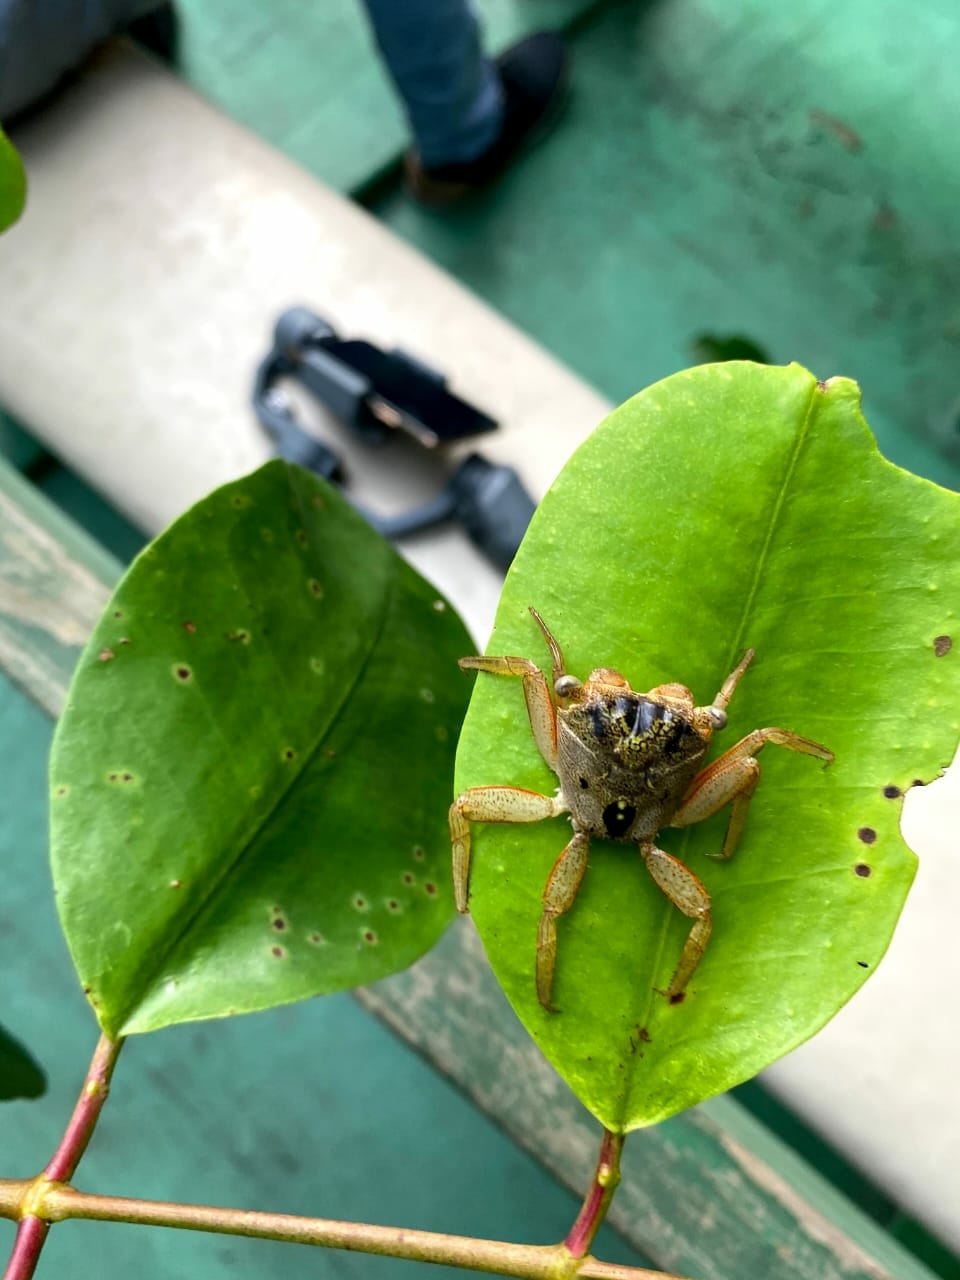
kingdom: Animalia
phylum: Arthropoda
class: Malacostraca
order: Decapoda
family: Sesarmidae
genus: Aratus
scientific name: Aratus pisonii
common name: Mangrove crab
